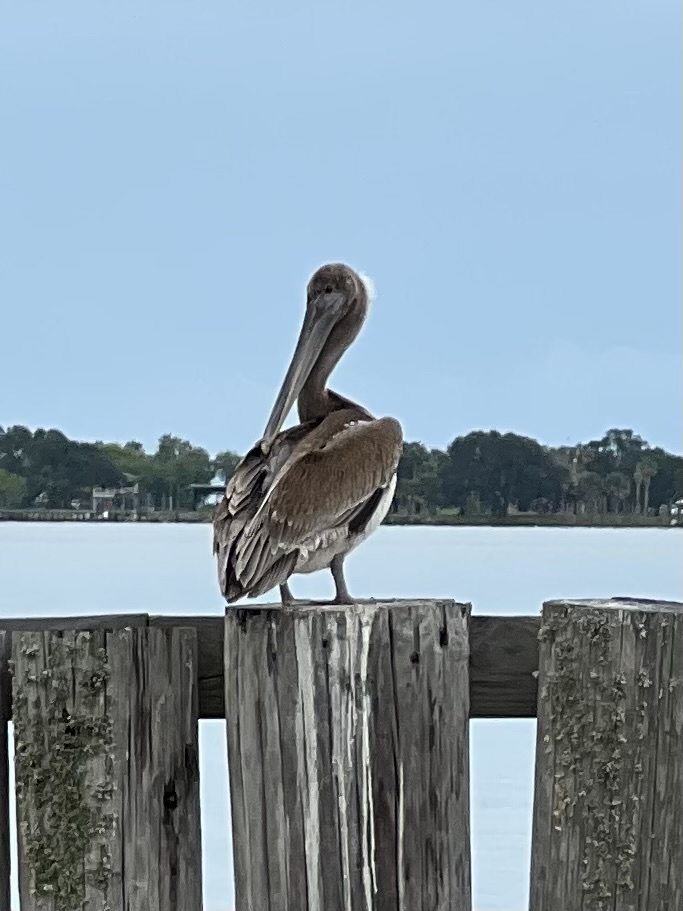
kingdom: Animalia
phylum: Chordata
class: Aves
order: Pelecaniformes
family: Pelecanidae
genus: Pelecanus
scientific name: Pelecanus occidentalis
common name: Brown pelican
